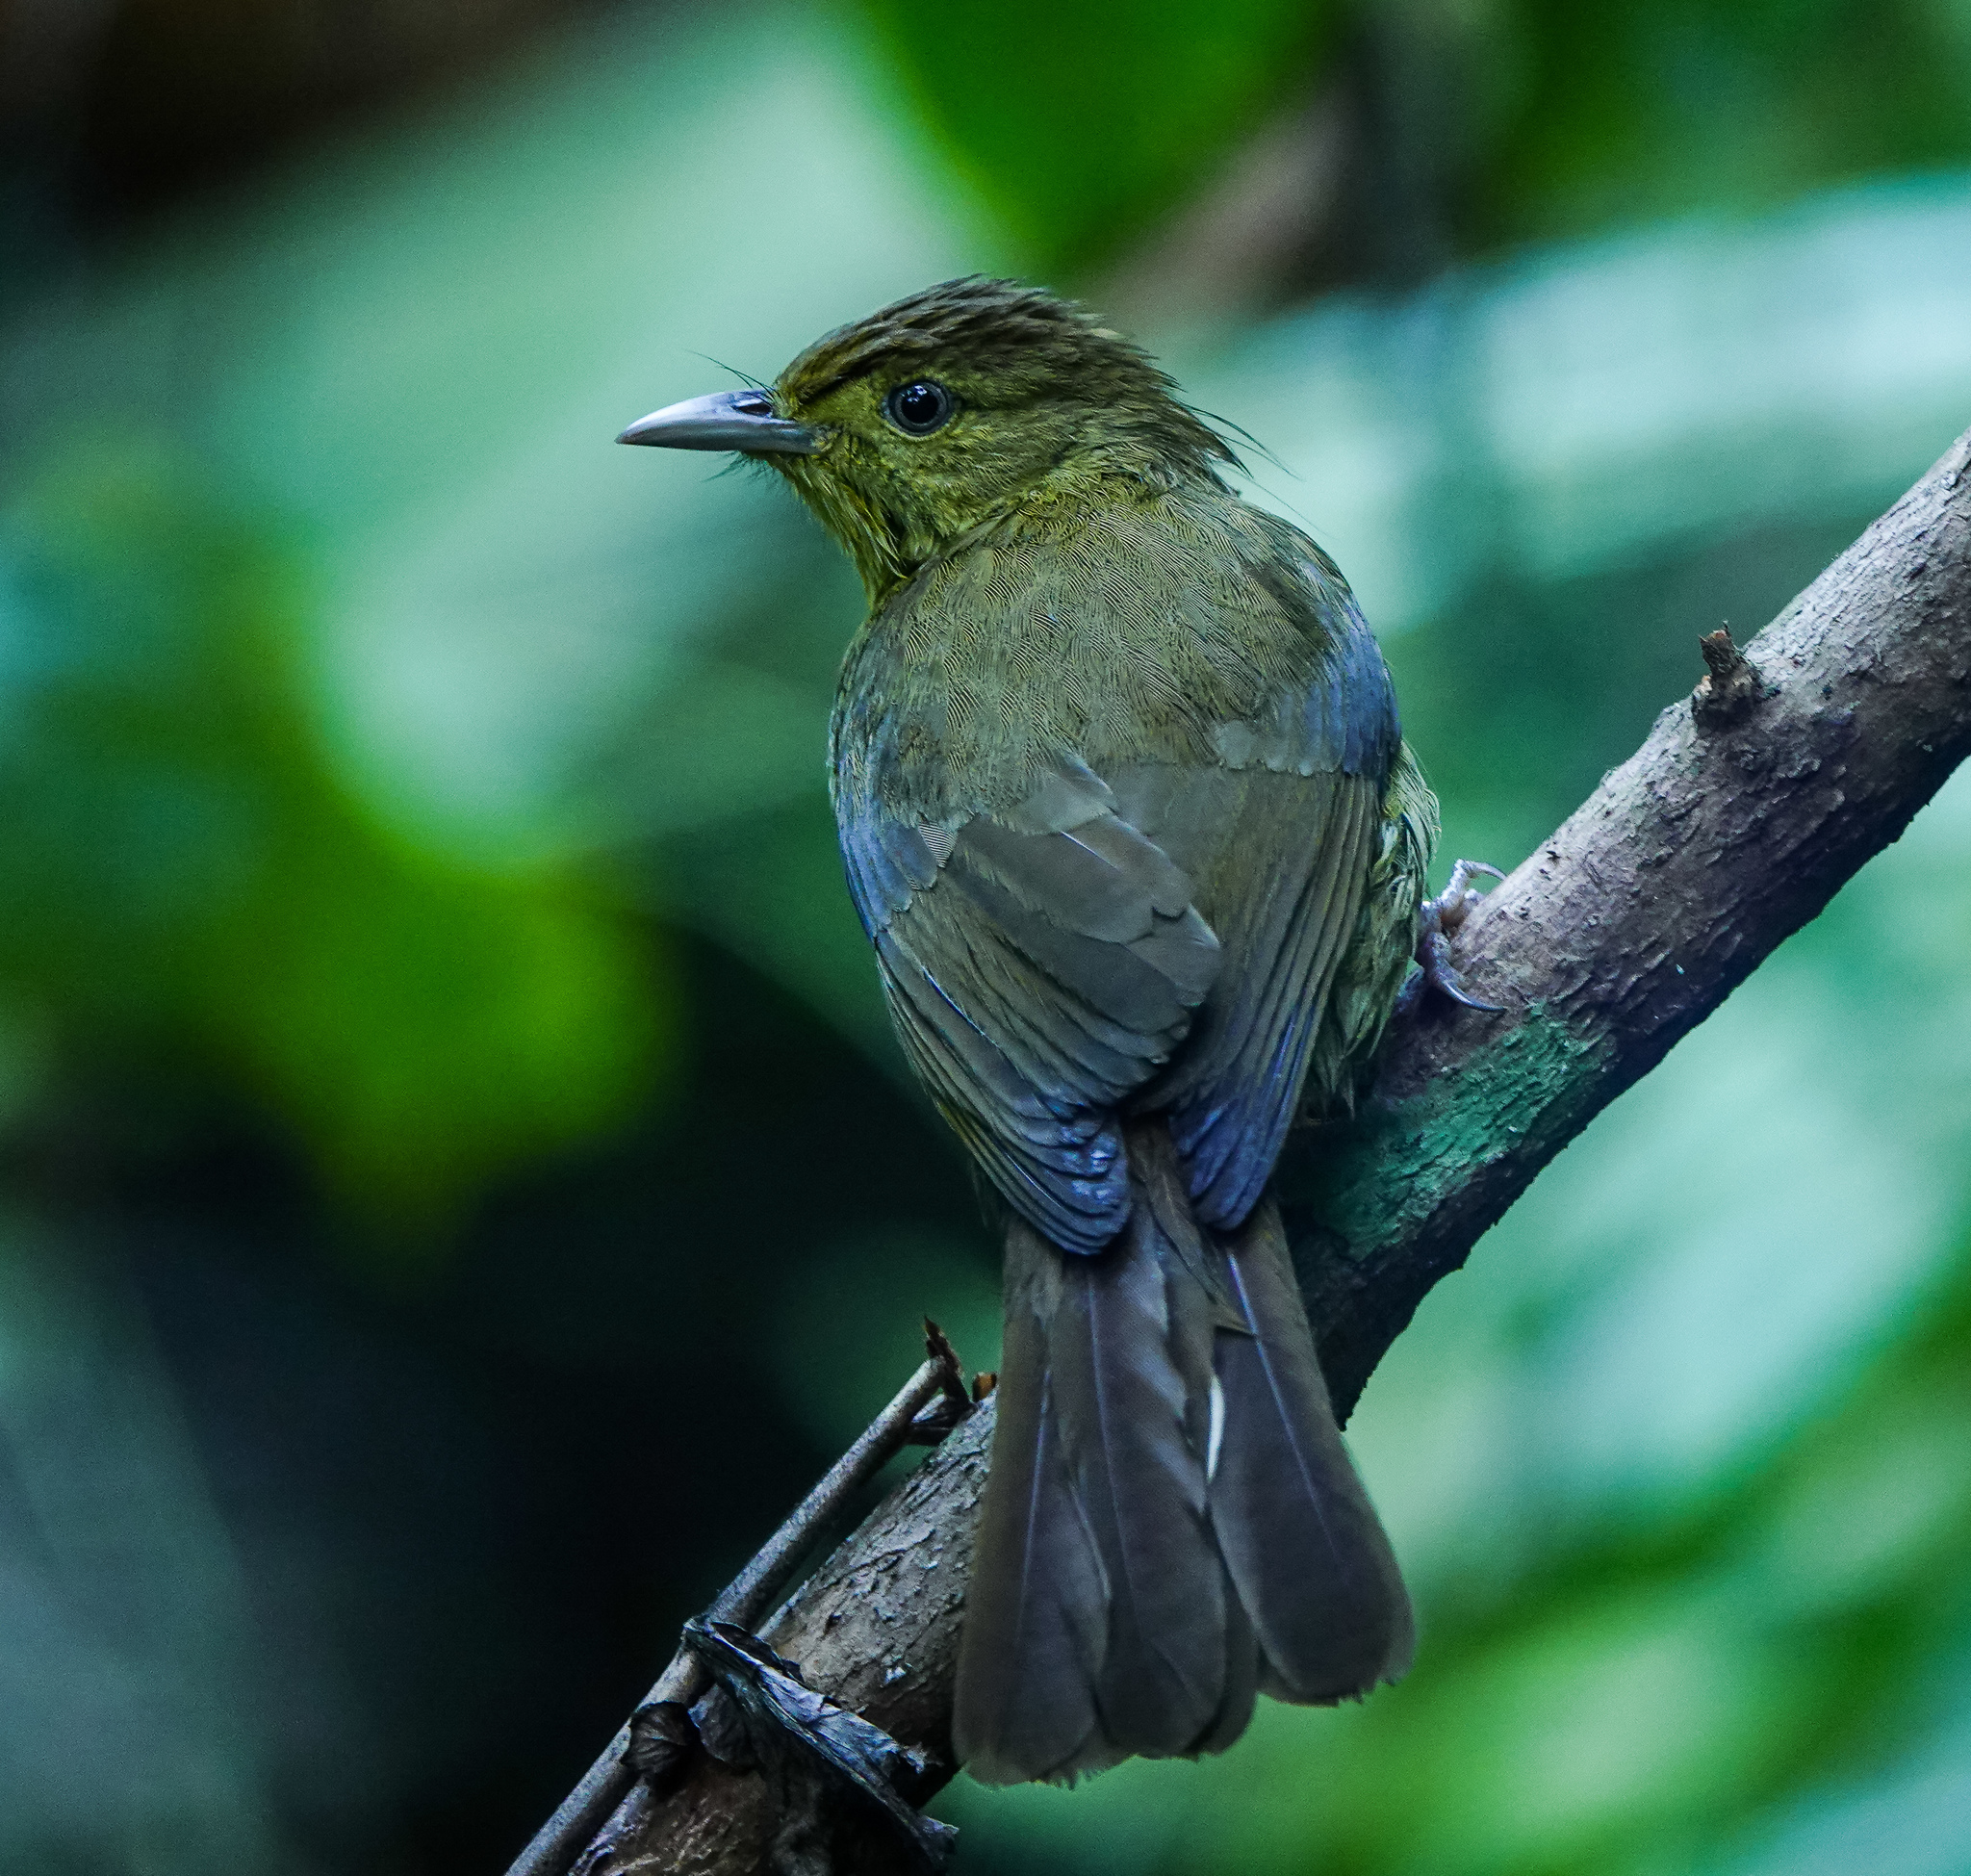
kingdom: Animalia
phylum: Chordata
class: Aves
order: Passeriformes
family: Pycnonotidae
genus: Iole
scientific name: Iole virescens
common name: Olive bulbul
